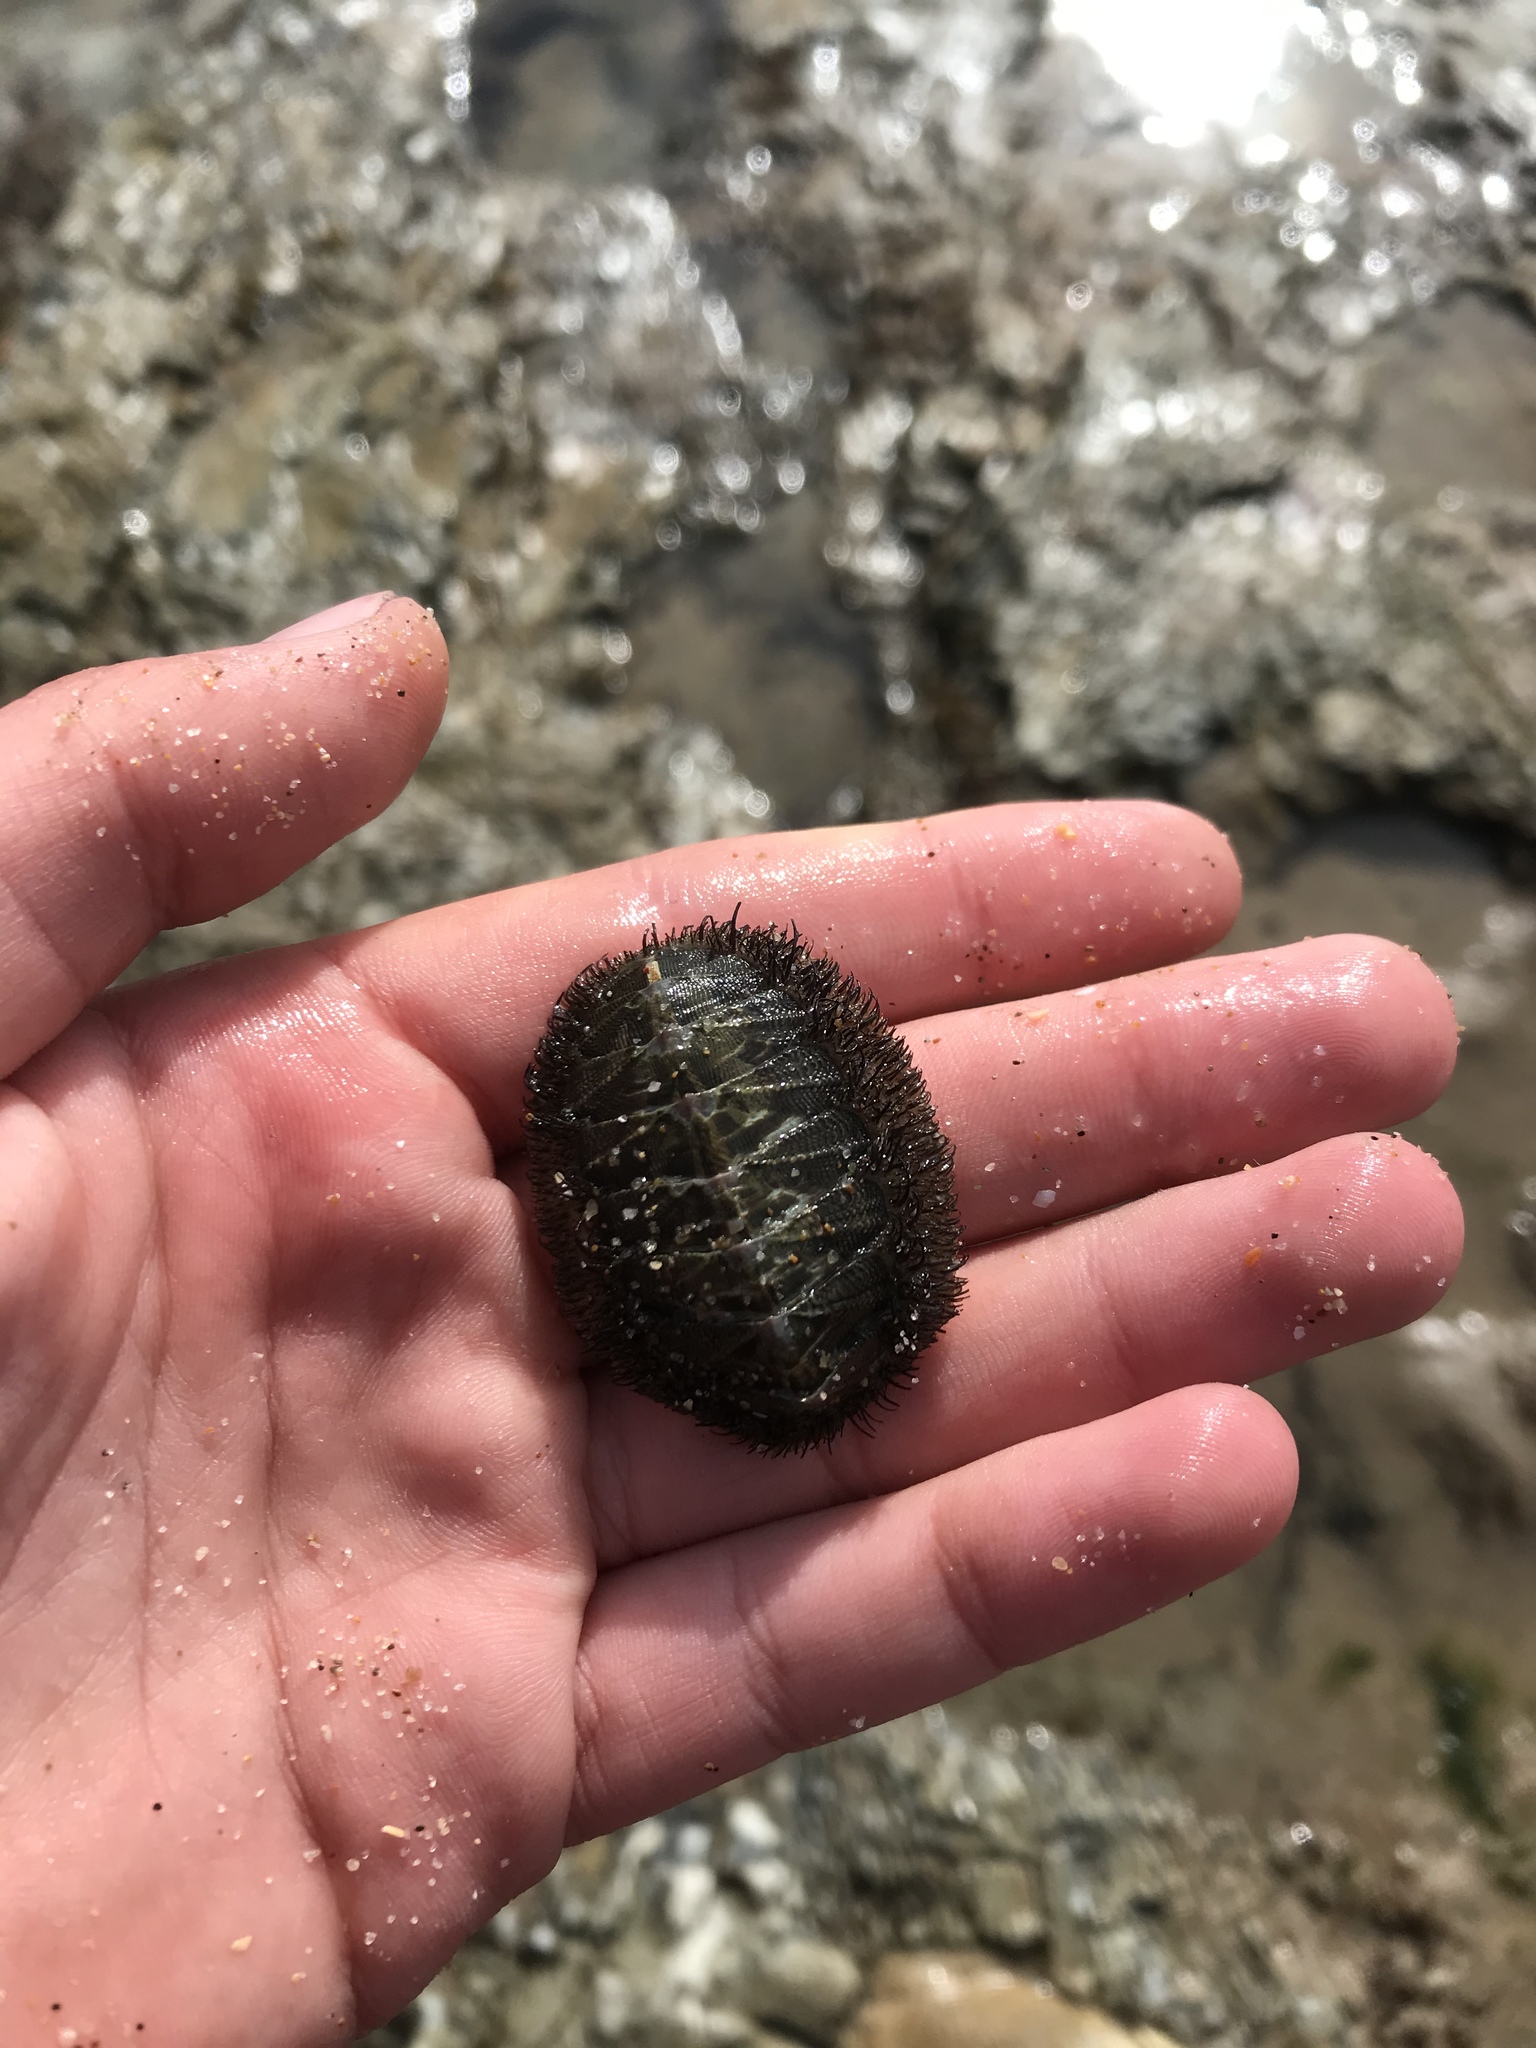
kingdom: Animalia
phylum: Mollusca
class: Polyplacophora
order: Chitonida
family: Mopaliidae
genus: Mopalia
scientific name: Mopalia muscosa
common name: Mossy chiton
